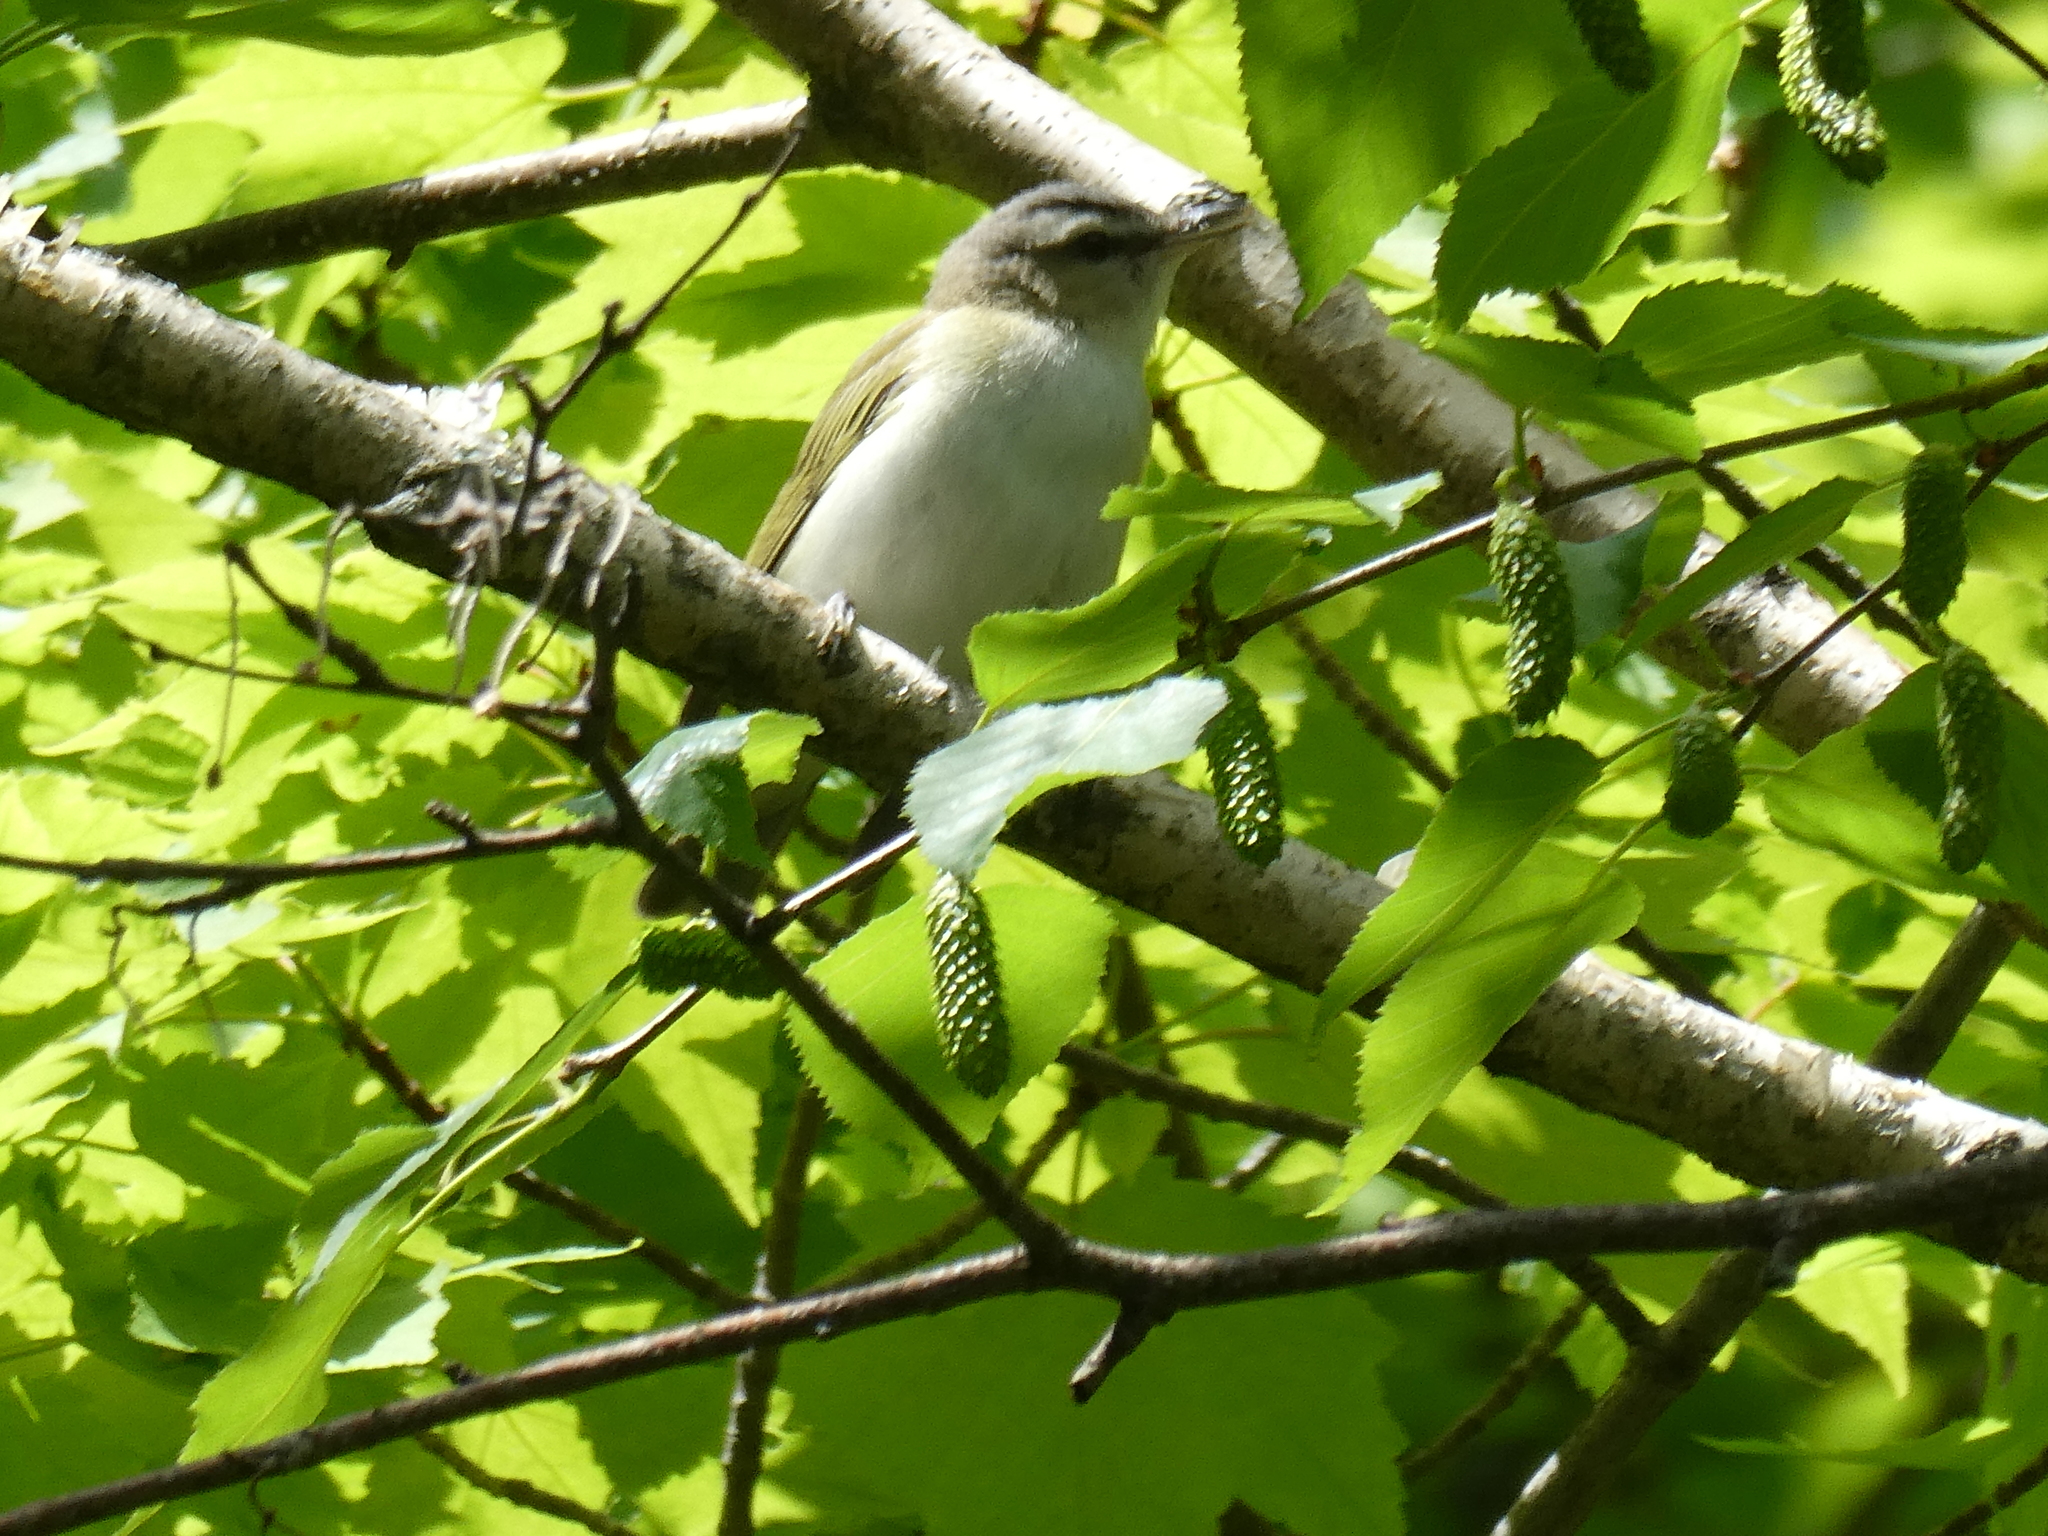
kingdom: Animalia
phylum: Chordata
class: Aves
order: Passeriformes
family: Vireonidae
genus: Vireo
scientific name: Vireo olivaceus
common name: Red-eyed vireo
